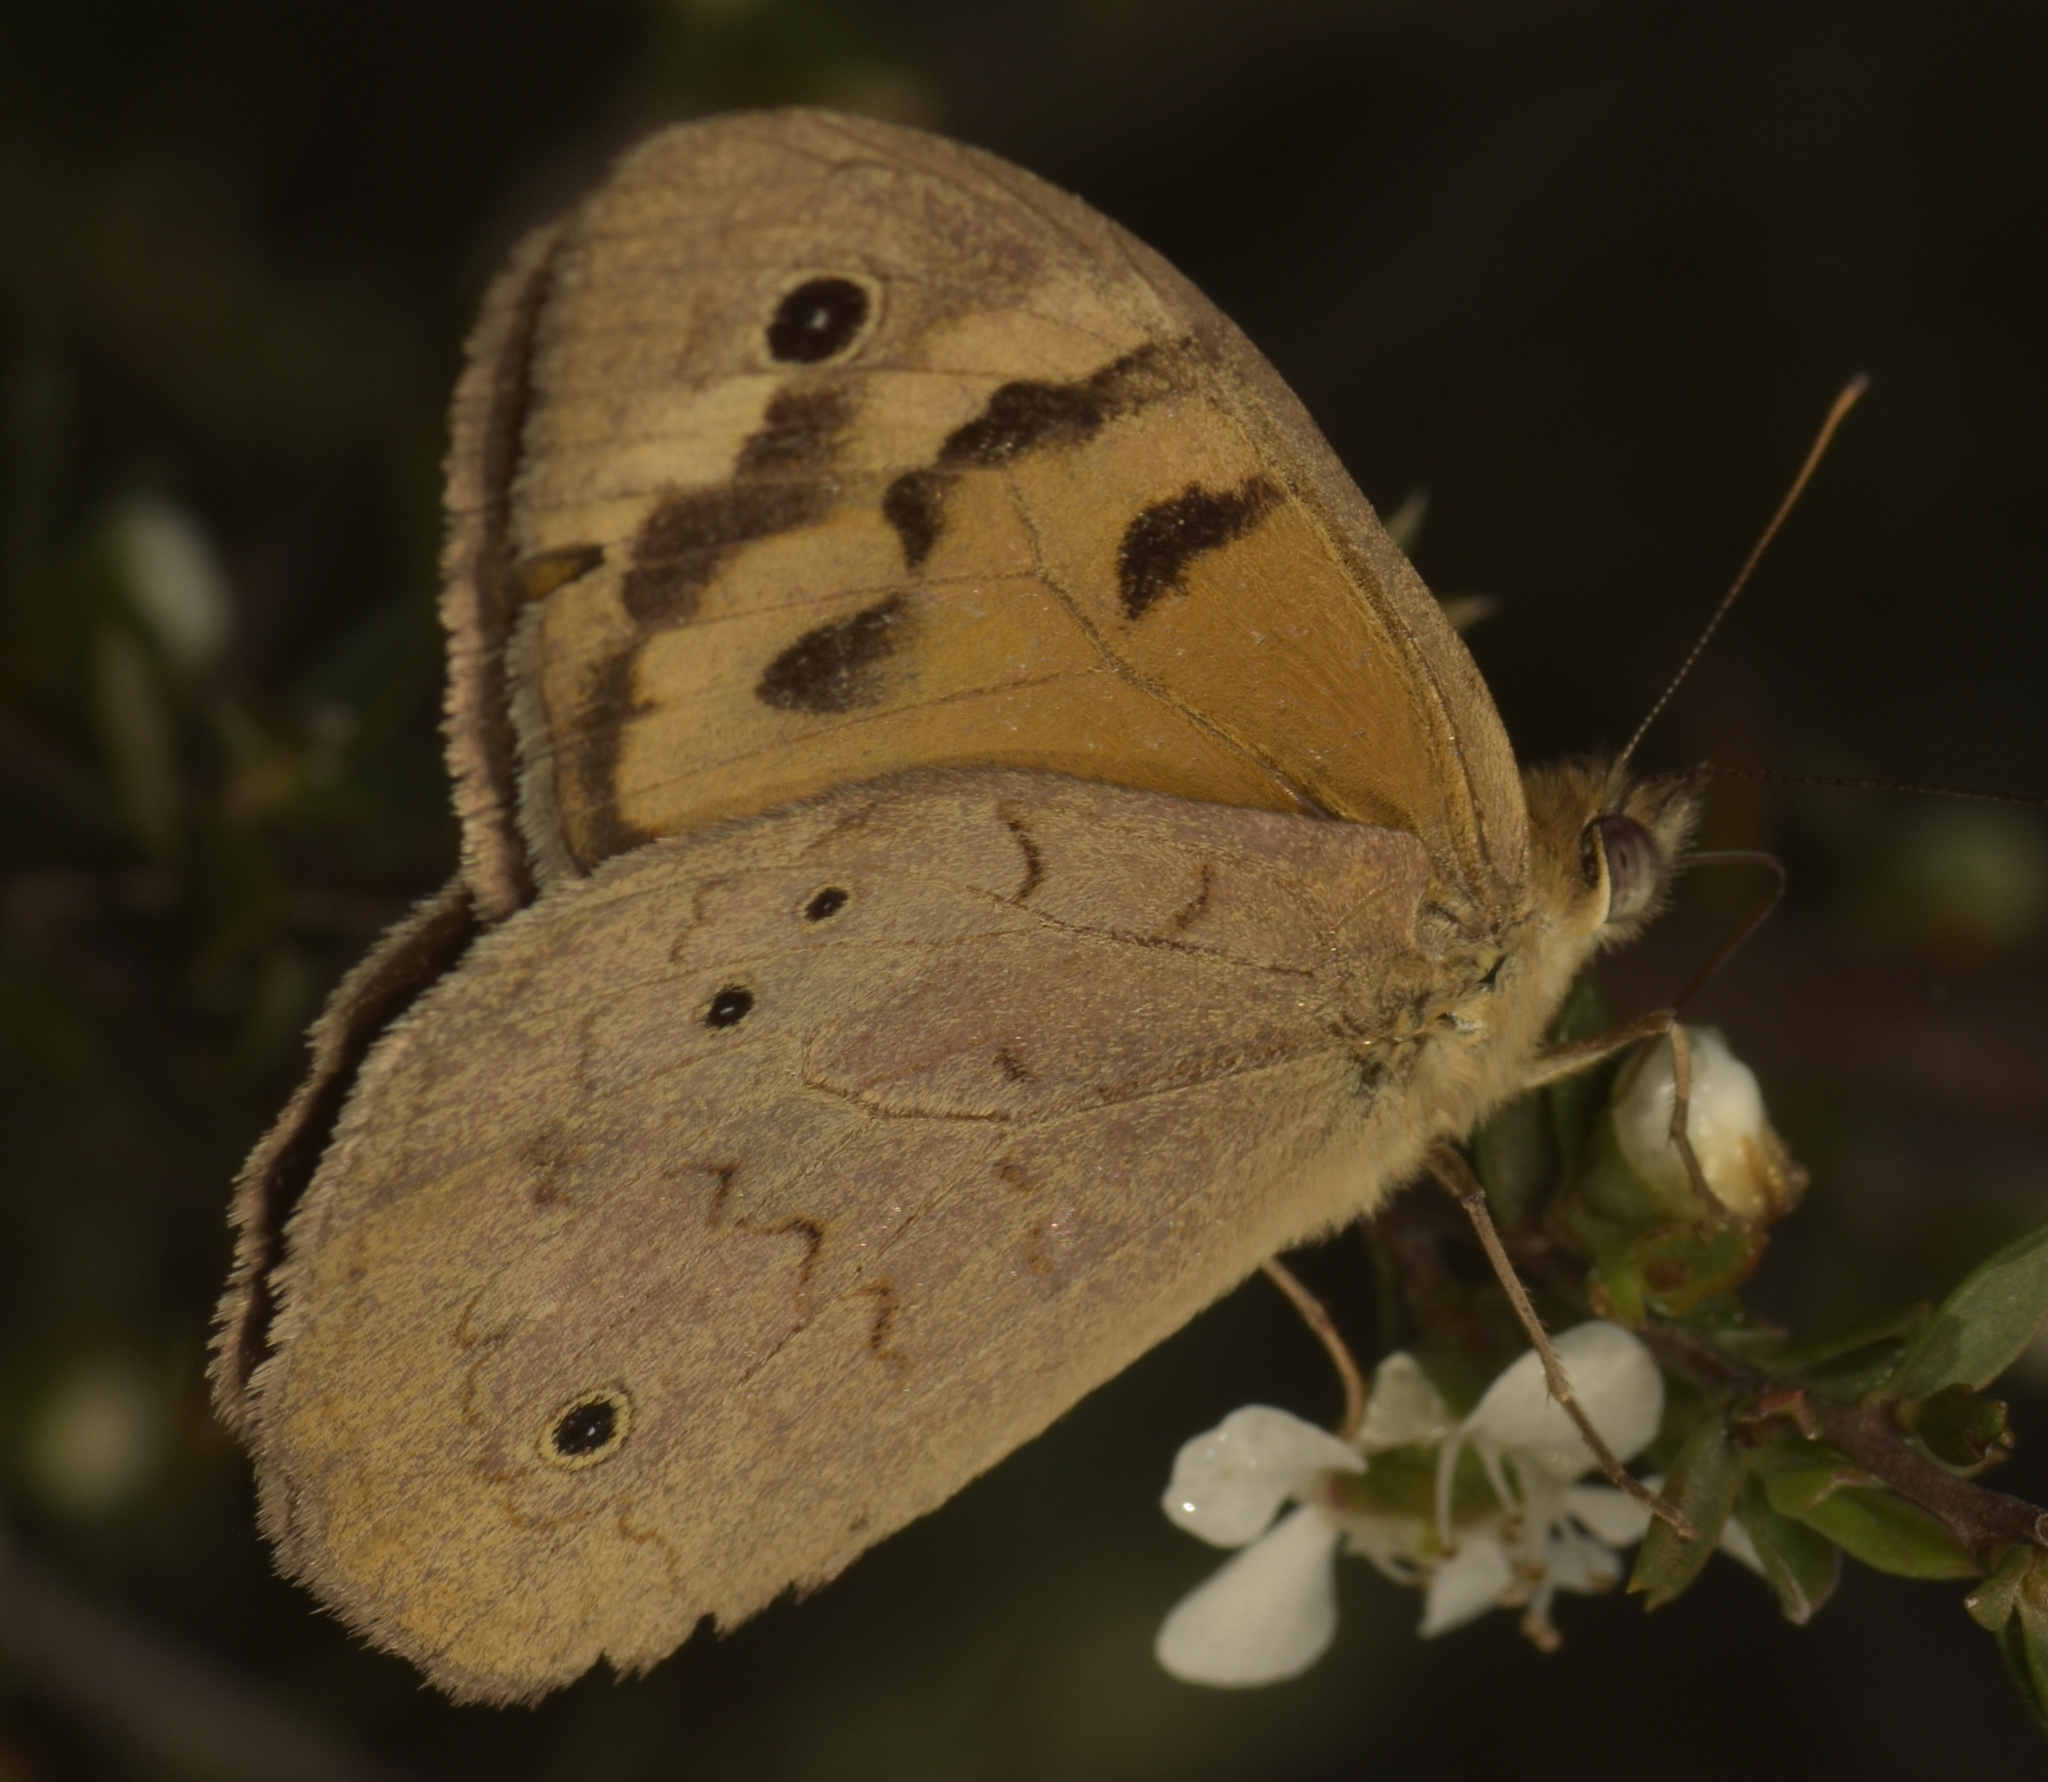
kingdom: Animalia
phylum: Arthropoda
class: Insecta
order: Lepidoptera
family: Nymphalidae
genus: Heteronympha
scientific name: Heteronympha merope
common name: Common brown
